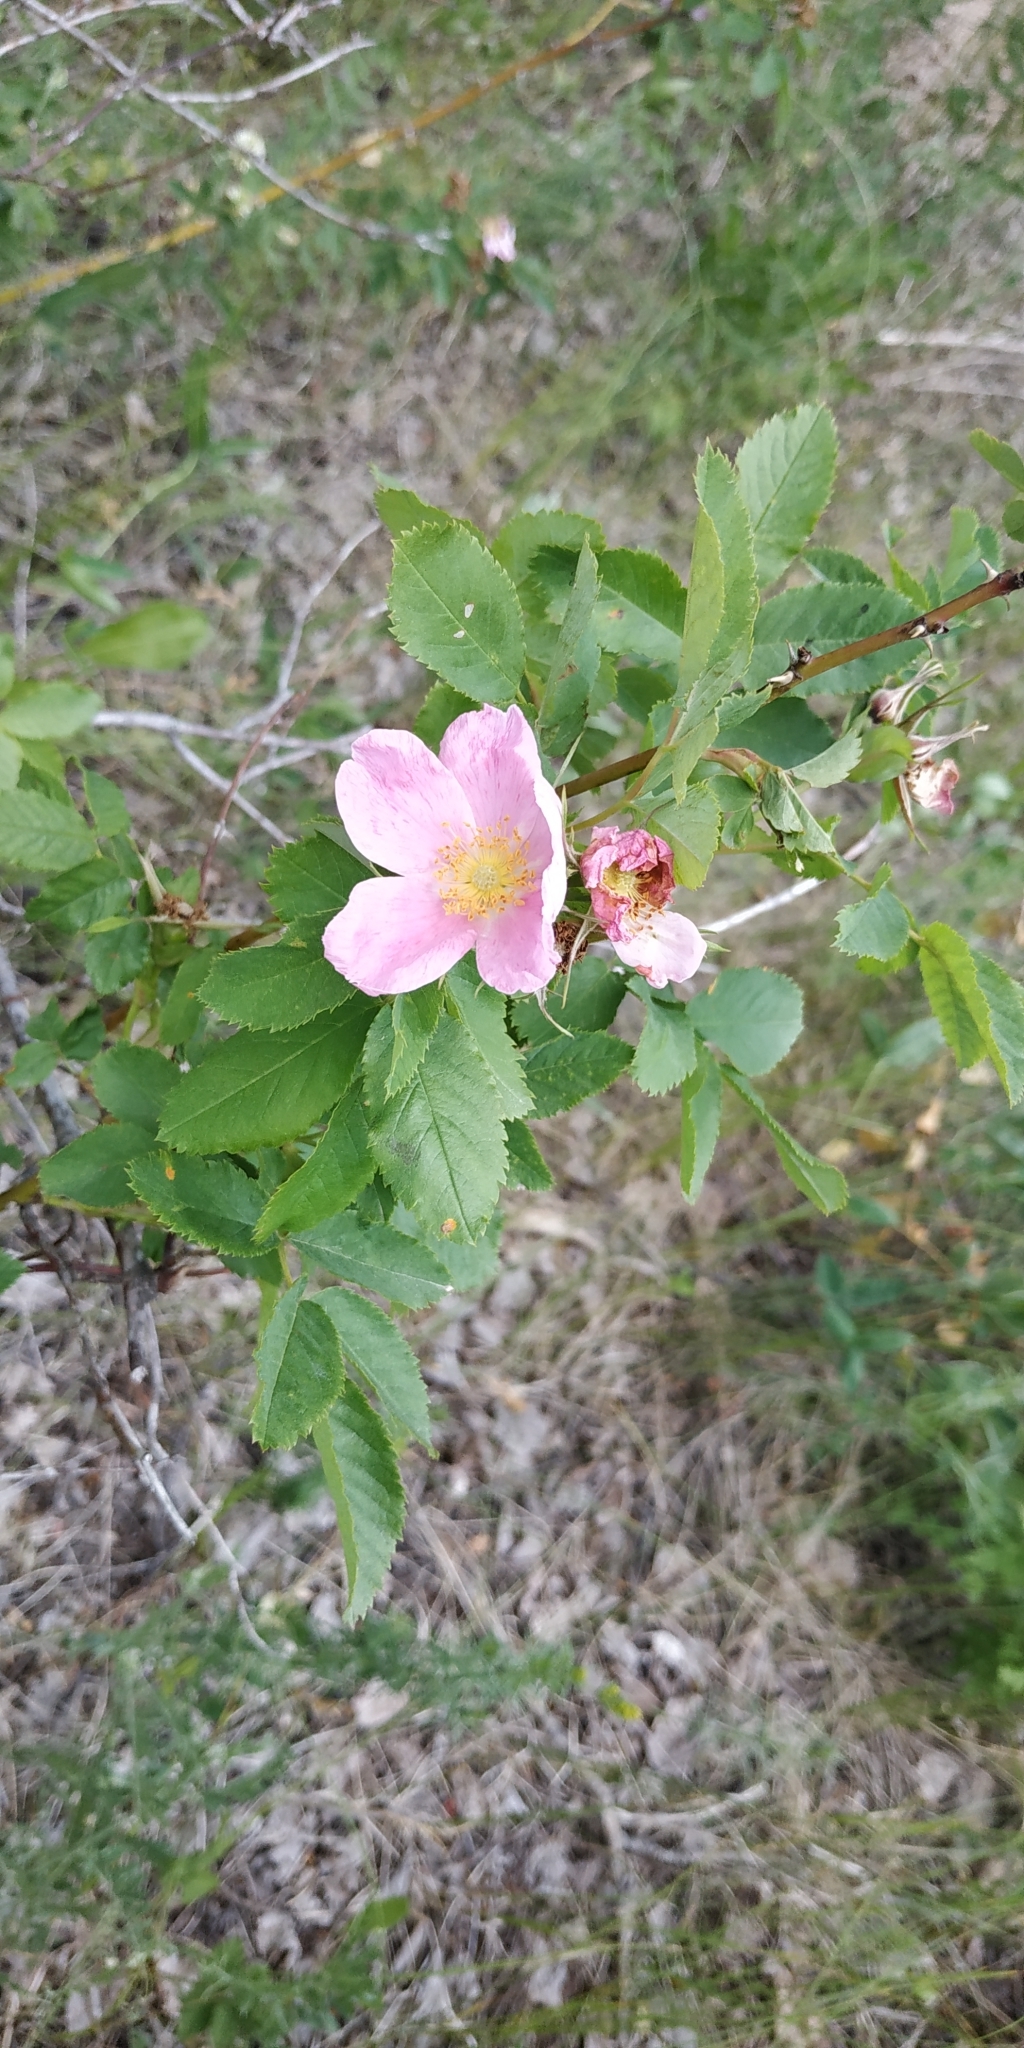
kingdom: Plantae
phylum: Tracheophyta
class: Magnoliopsida
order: Rosales
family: Rosaceae
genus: Rosa
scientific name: Rosa
